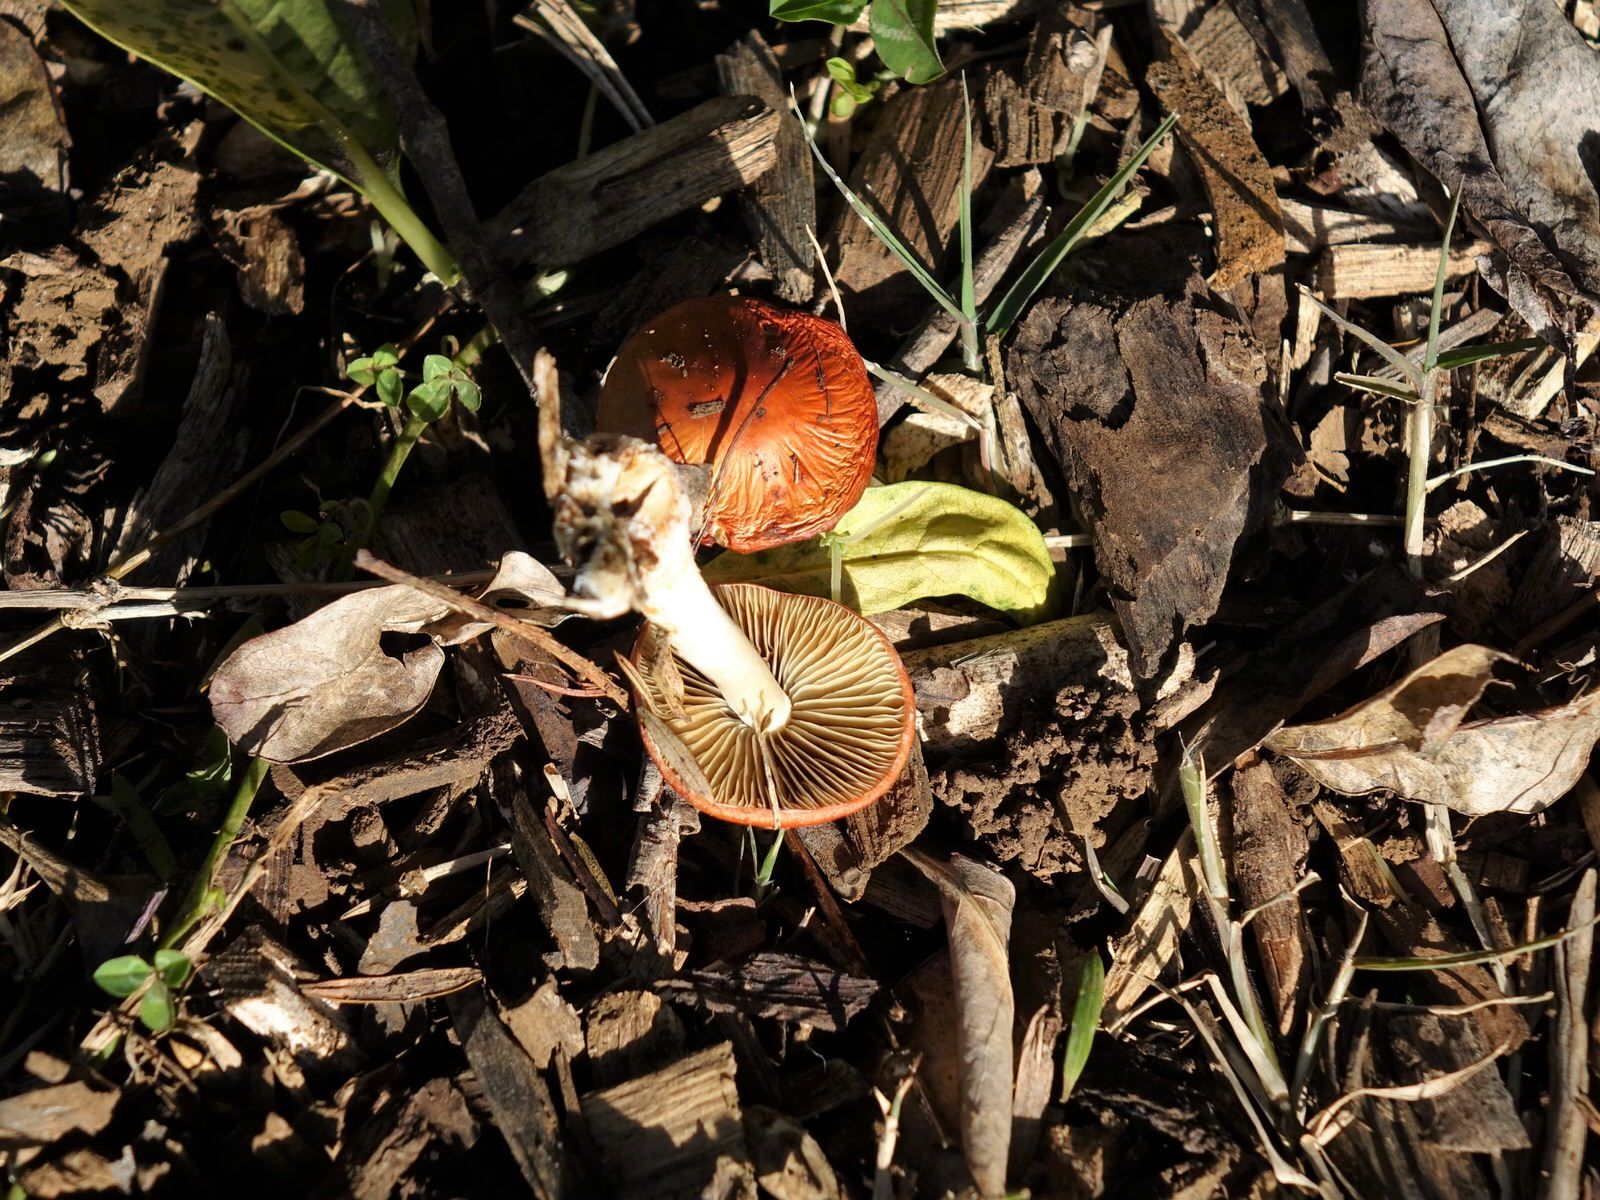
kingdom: Fungi
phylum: Basidiomycota
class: Agaricomycetes
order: Agaricales
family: Strophariaceae
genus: Leratiomyces
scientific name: Leratiomyces ceres
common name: Redlead roundhead
